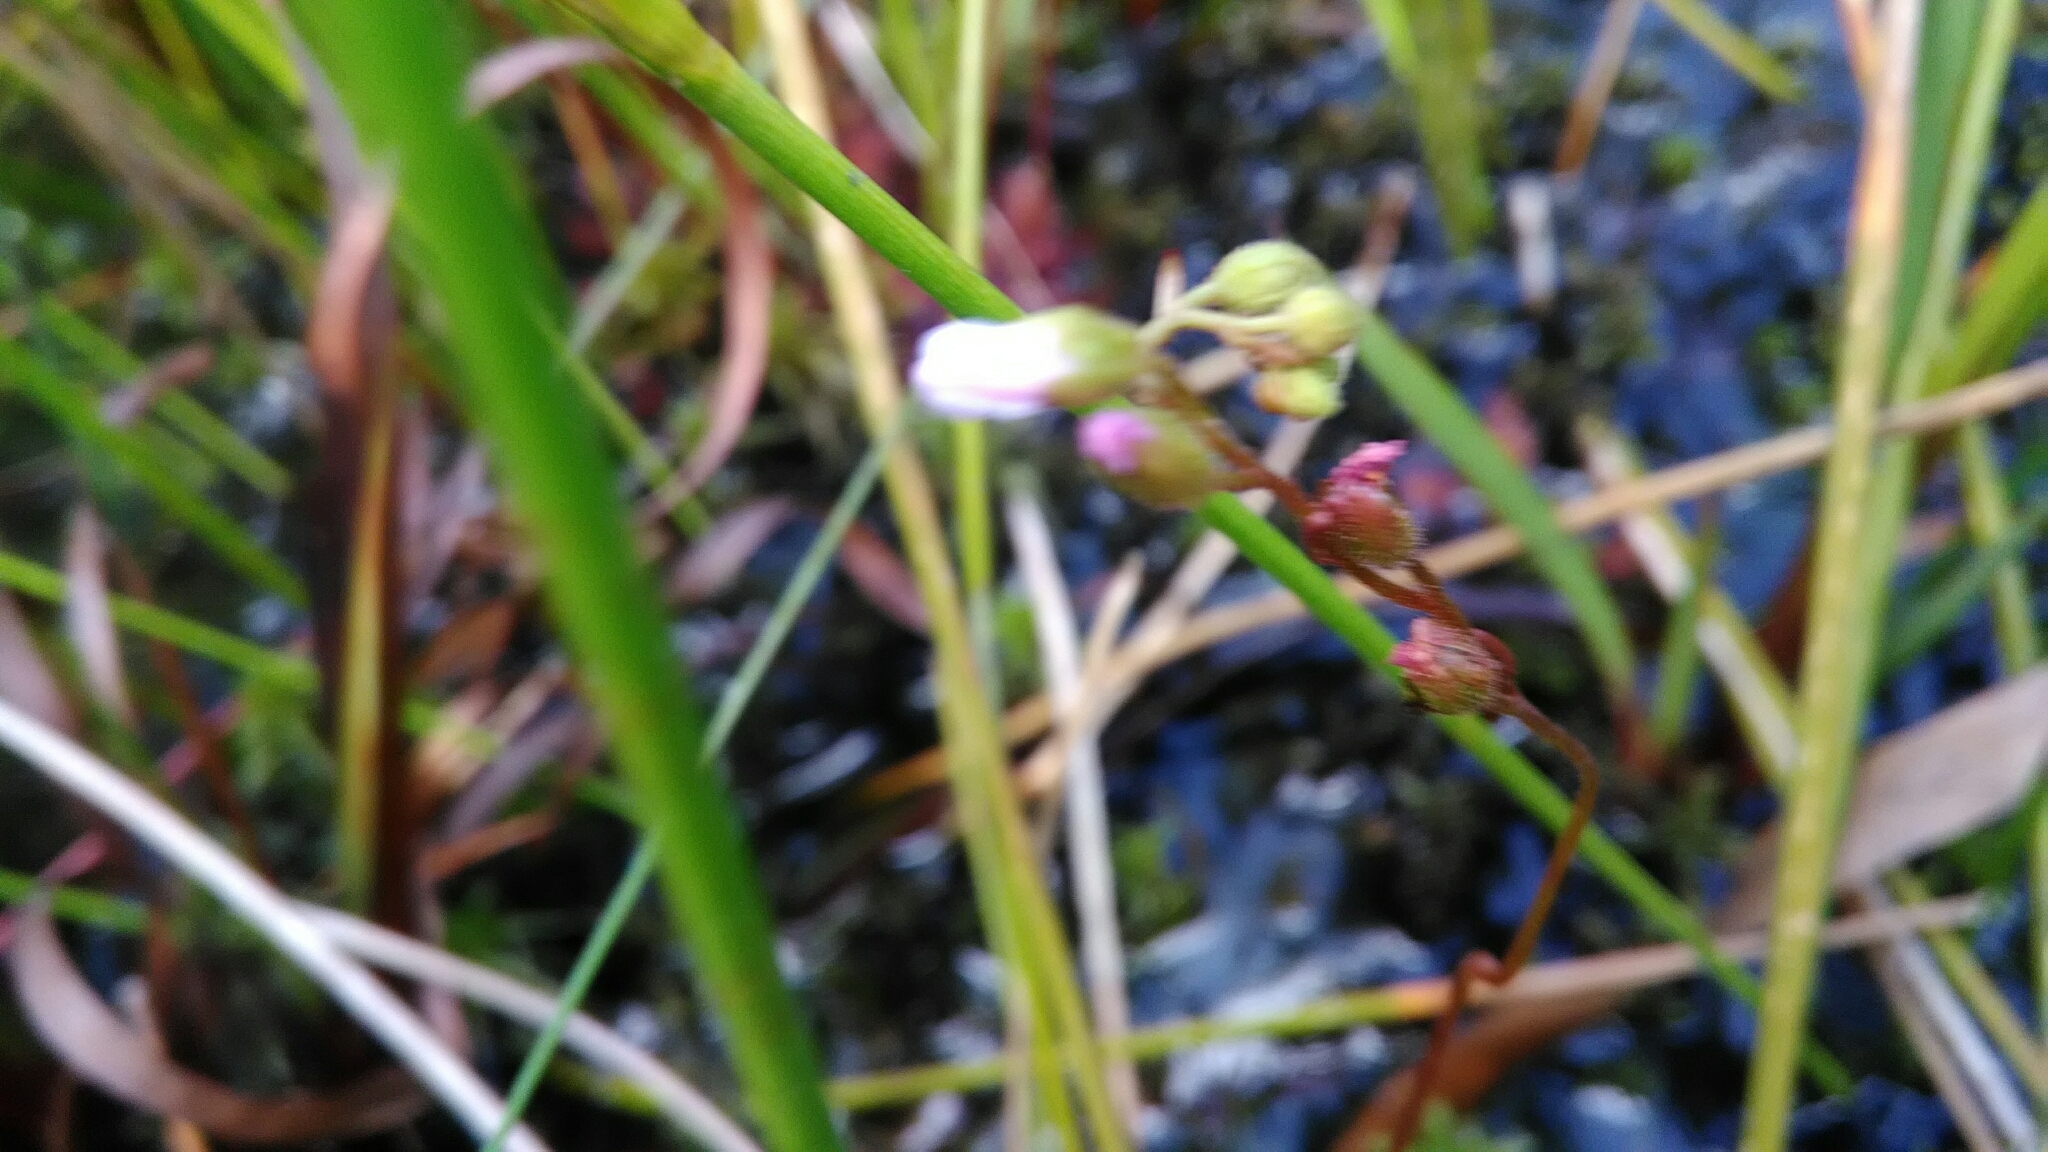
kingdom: Plantae
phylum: Tracheophyta
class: Magnoliopsida
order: Caryophyllales
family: Droseraceae
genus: Drosera
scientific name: Drosera communis
